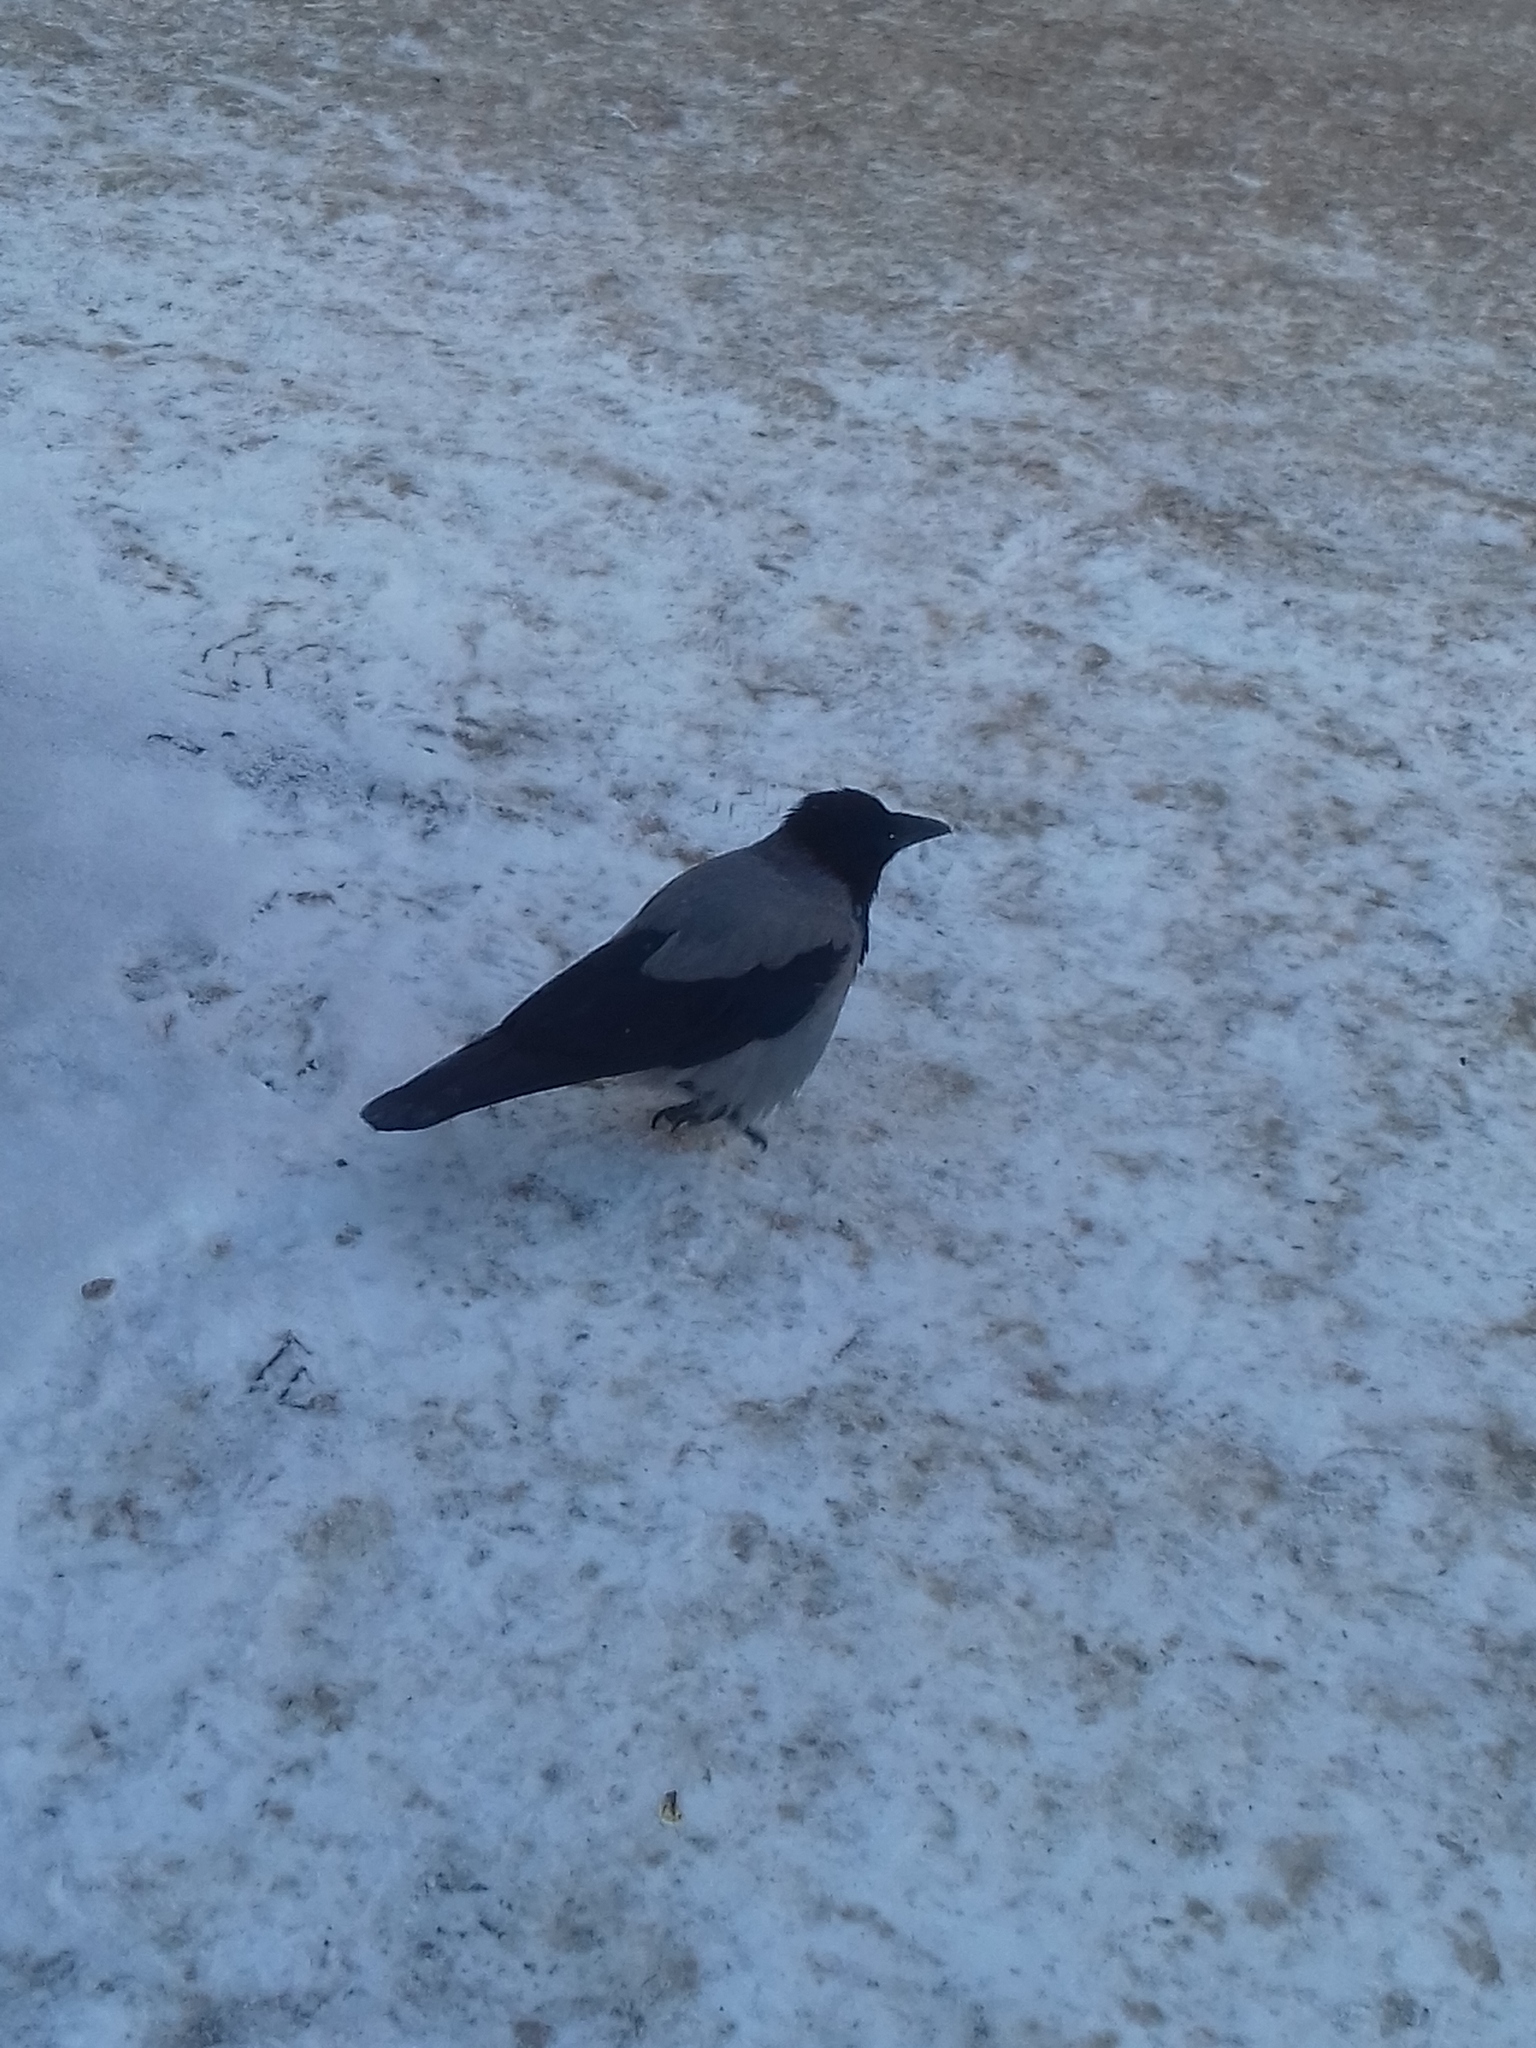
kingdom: Animalia
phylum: Chordata
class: Aves
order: Passeriformes
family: Corvidae
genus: Corvus
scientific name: Corvus cornix
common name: Hooded crow
